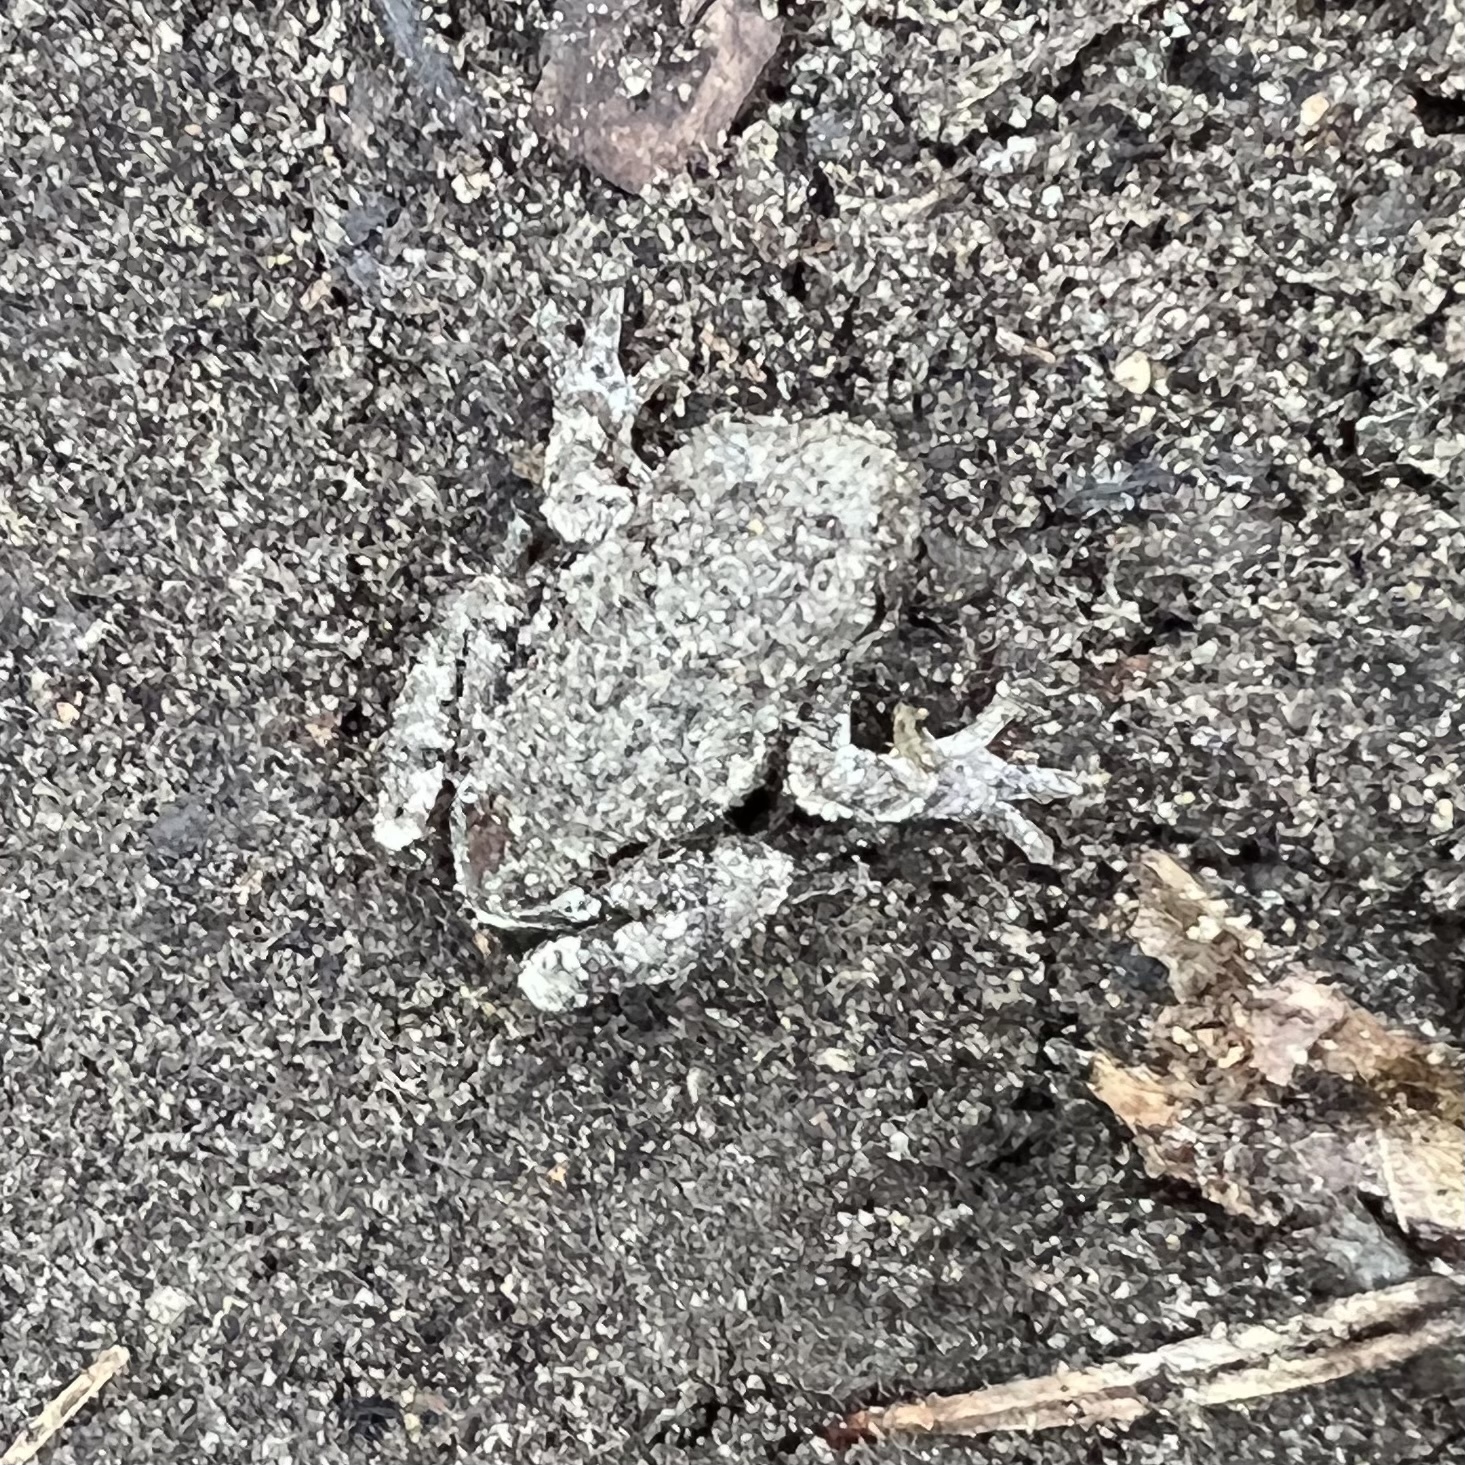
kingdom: Animalia
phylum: Chordata
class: Amphibia
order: Anura
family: Hylidae
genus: Dryophytes
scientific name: Dryophytes versicolor
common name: Gray treefrog
